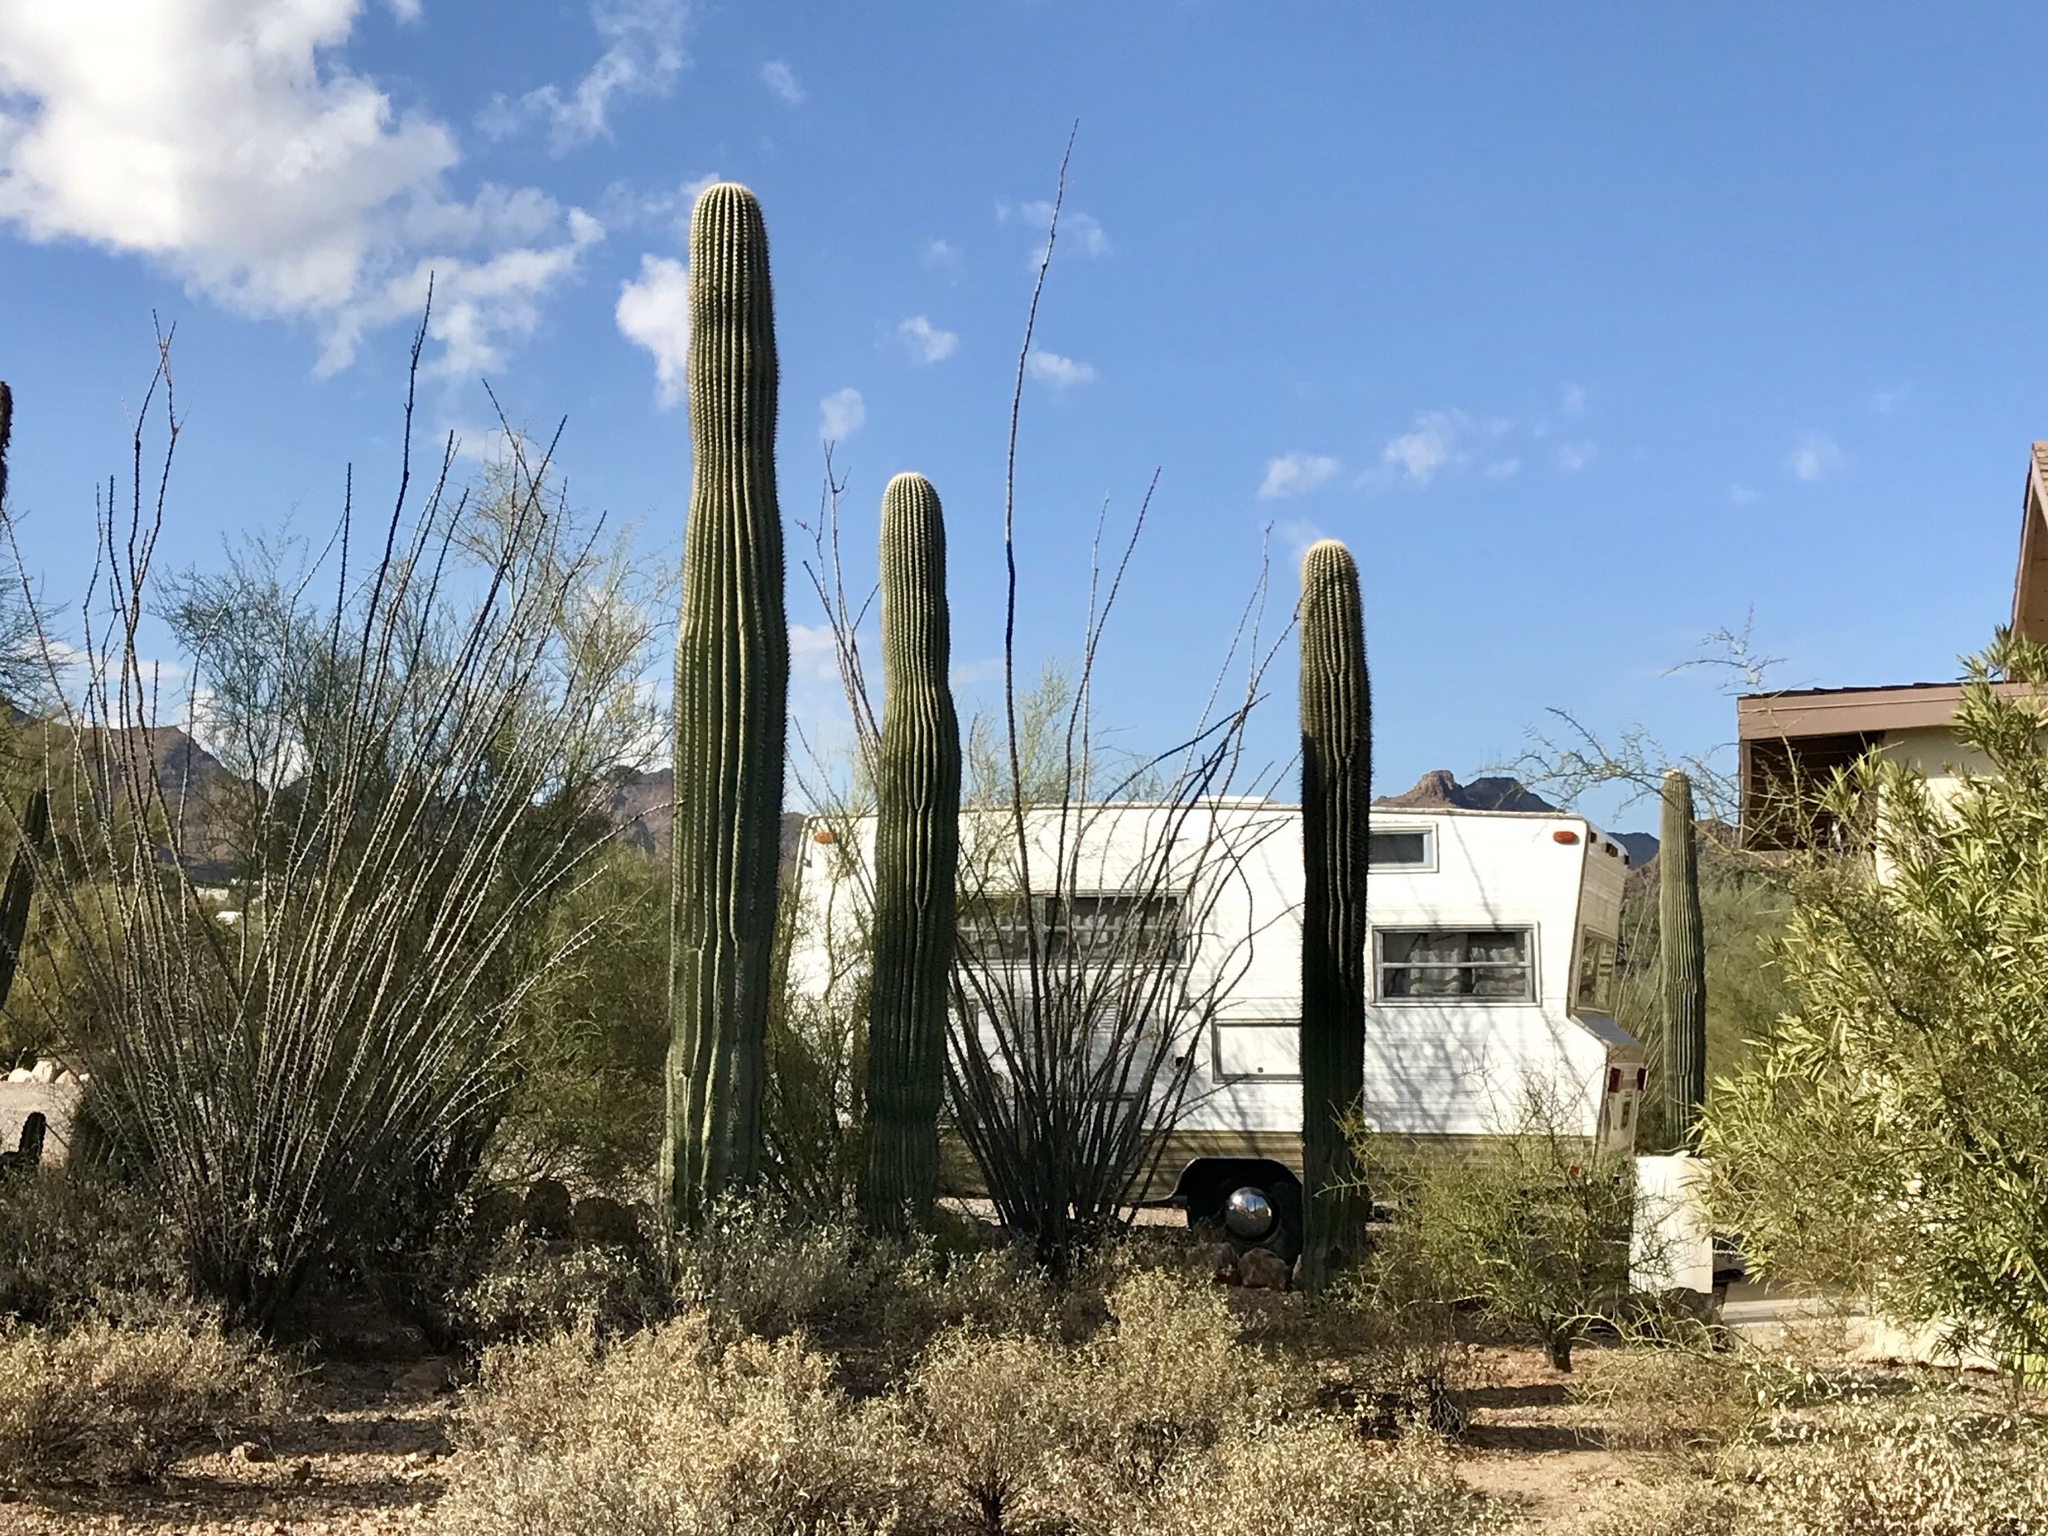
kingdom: Plantae
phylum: Tracheophyta
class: Magnoliopsida
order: Caryophyllales
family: Cactaceae
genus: Carnegiea
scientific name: Carnegiea gigantea
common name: Saguaro
